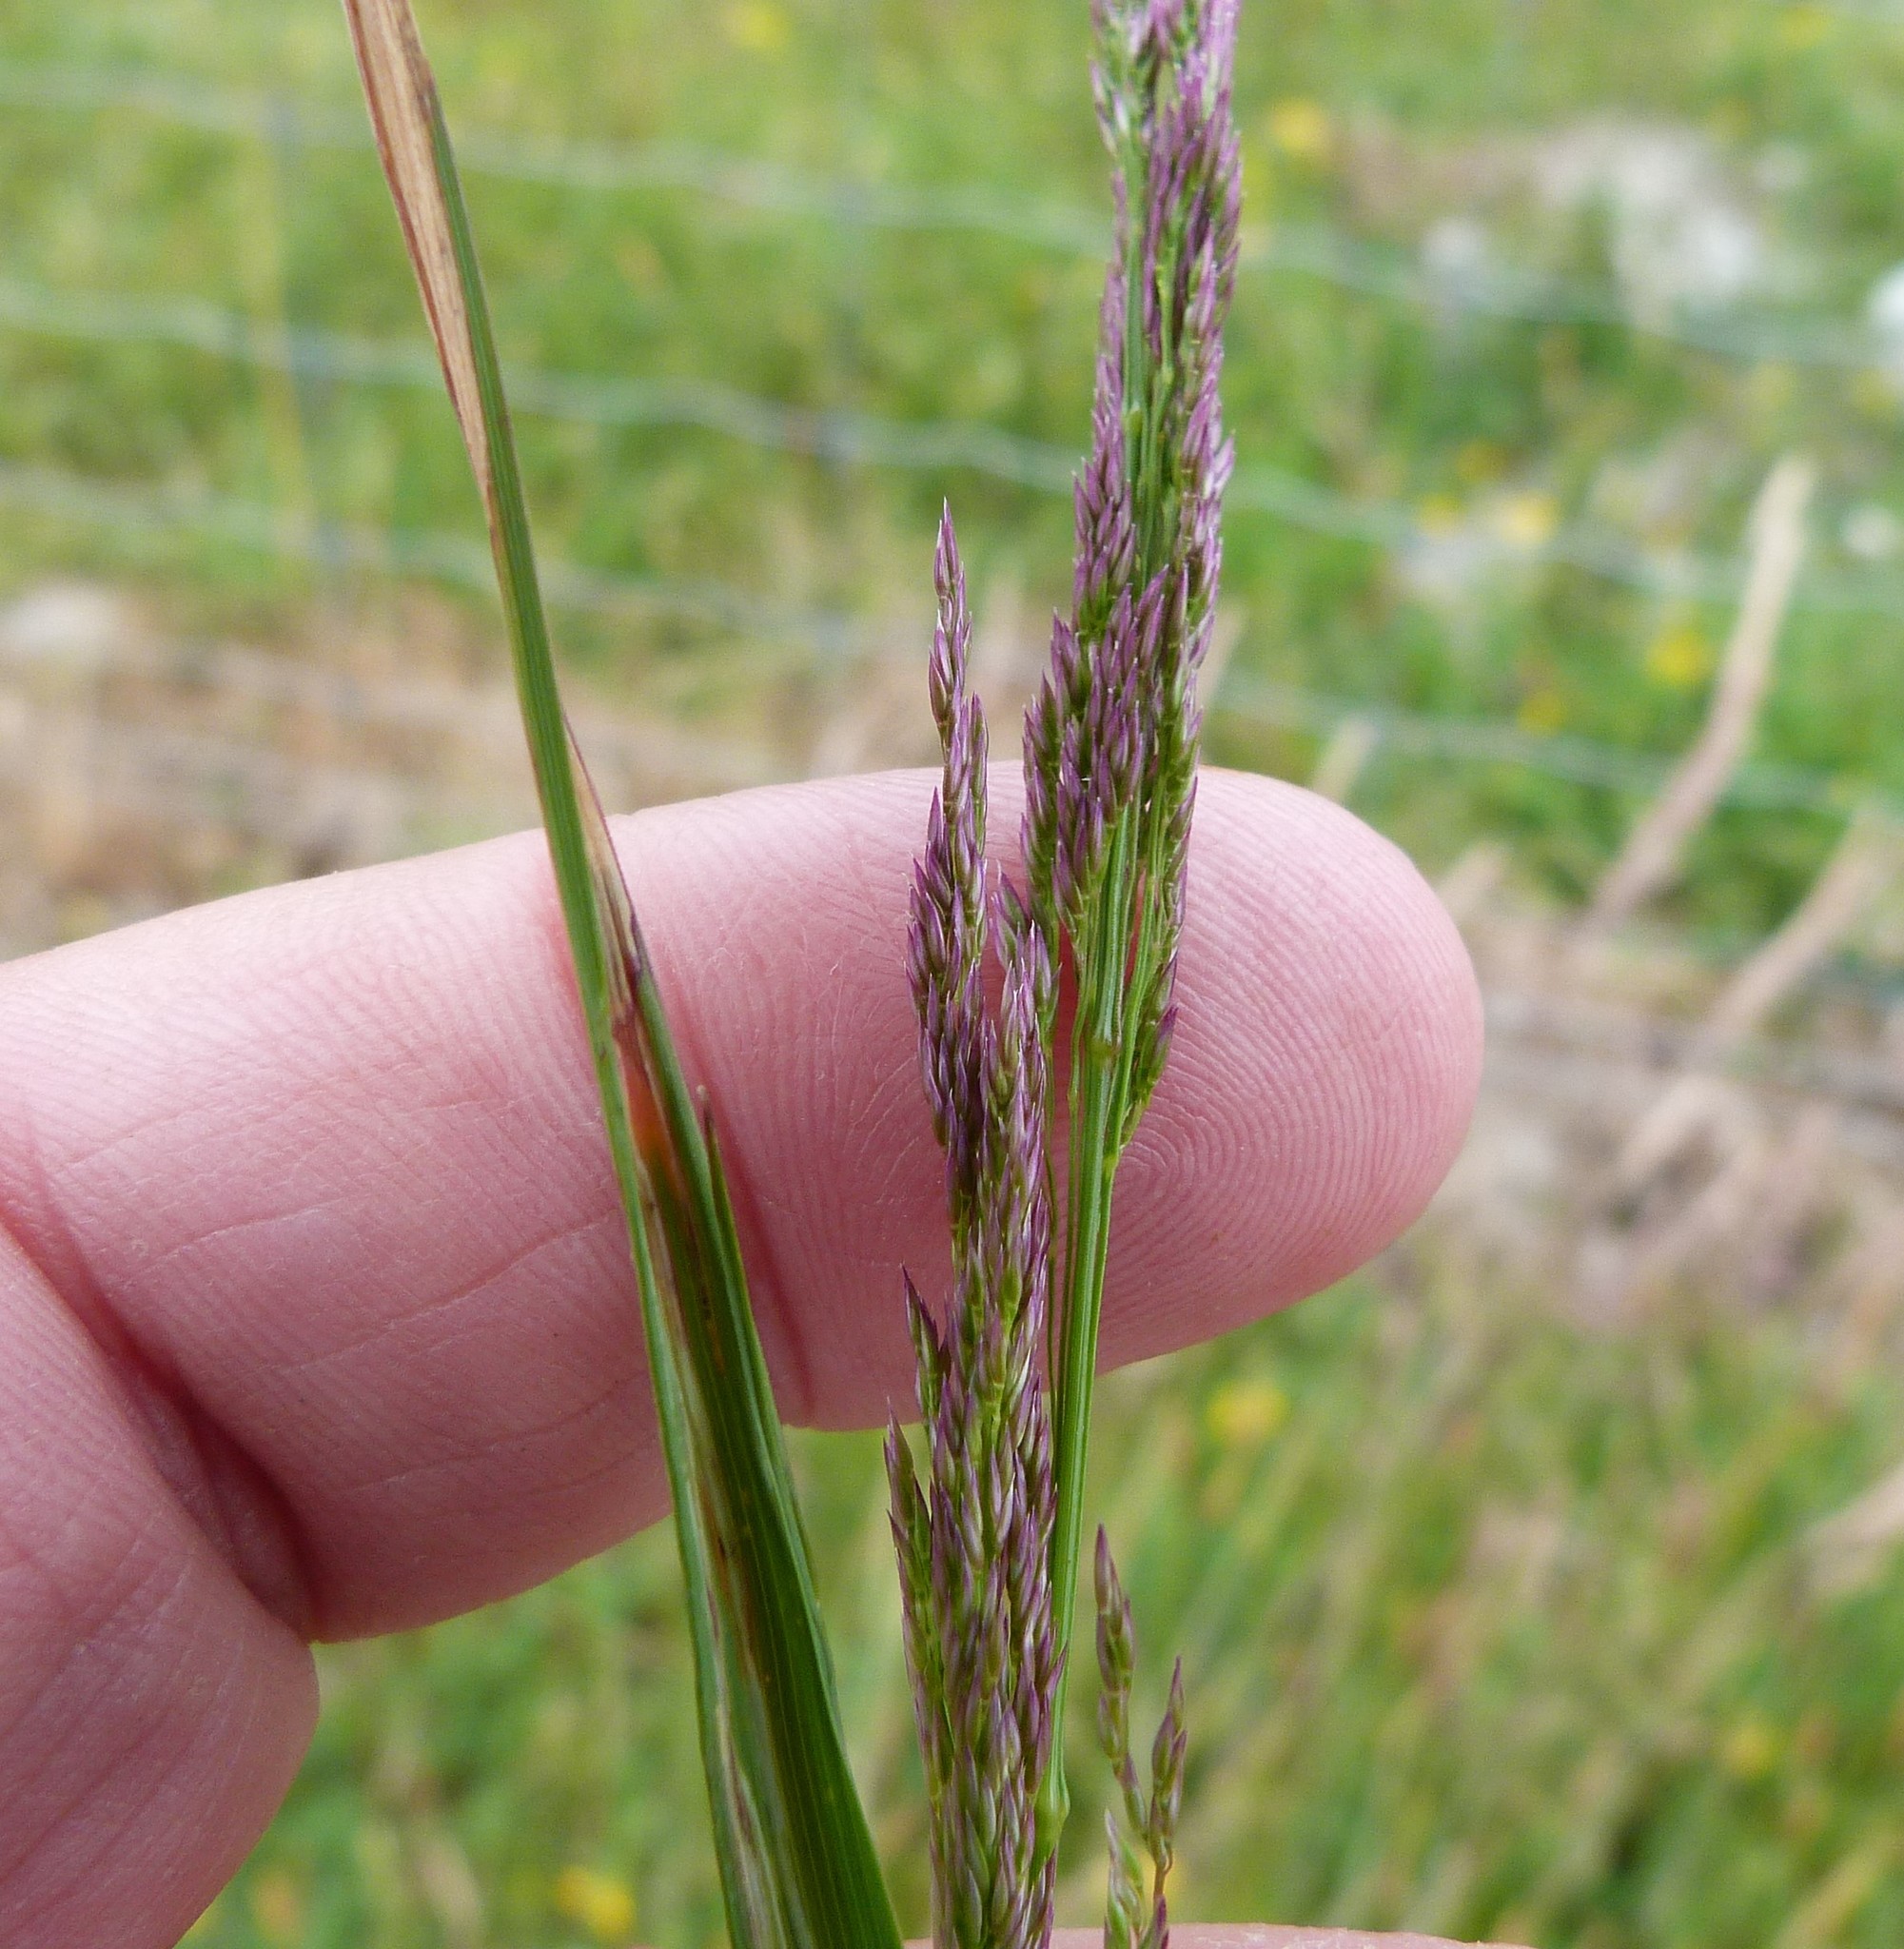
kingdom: Plantae
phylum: Tracheophyta
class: Liliopsida
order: Poales
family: Poaceae
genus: Agrostis
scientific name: Agrostis capillaris
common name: Colonial bentgrass
